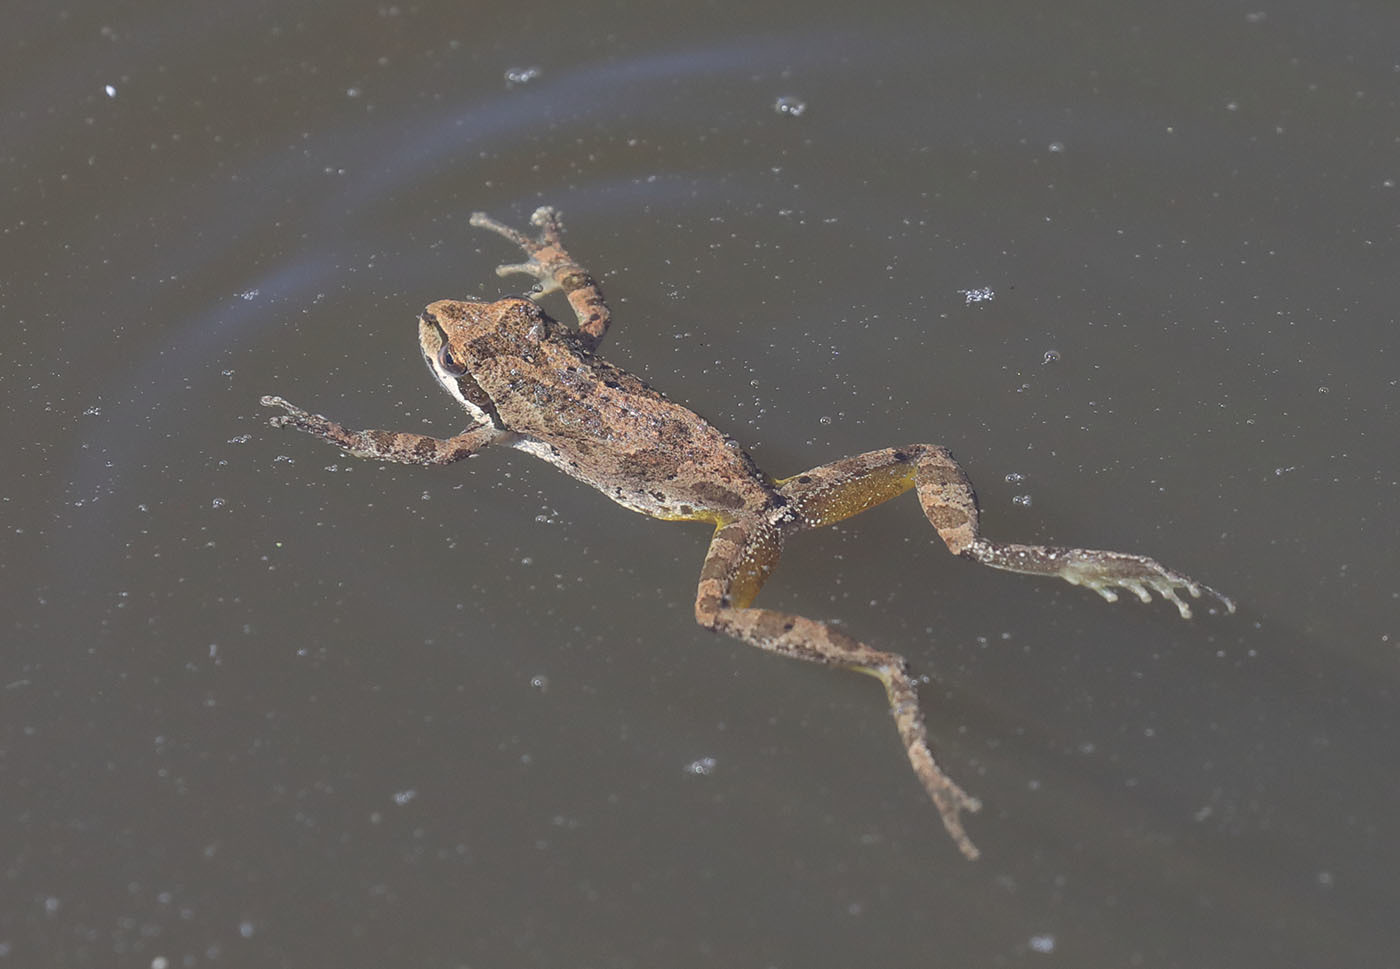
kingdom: Animalia
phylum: Chordata
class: Amphibia
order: Anura
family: Hylidae
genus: Pseudacris
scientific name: Pseudacris regilla
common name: Pacific chorus frog
